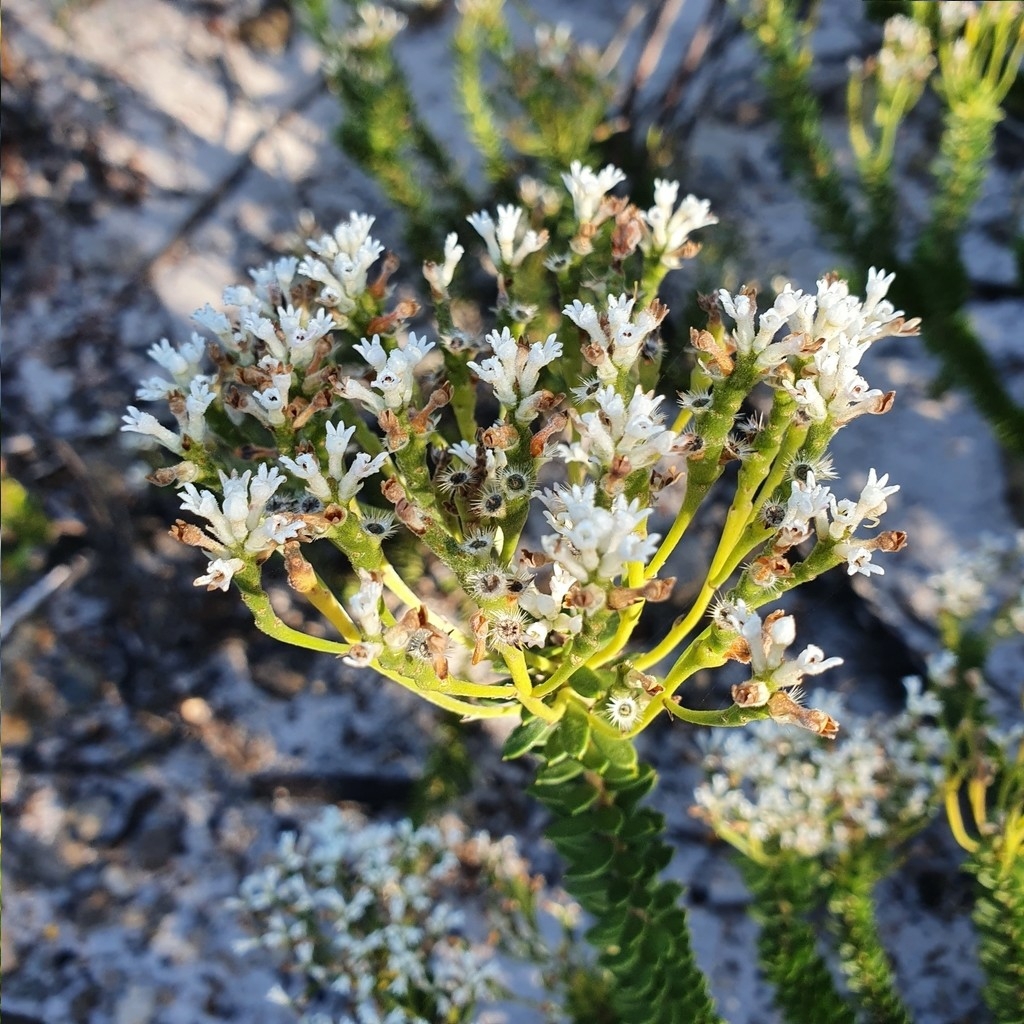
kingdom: Plantae
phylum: Tracheophyta
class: Magnoliopsida
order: Proteales
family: Proteaceae
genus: Conospermum
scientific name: Conospermum ellipticum
